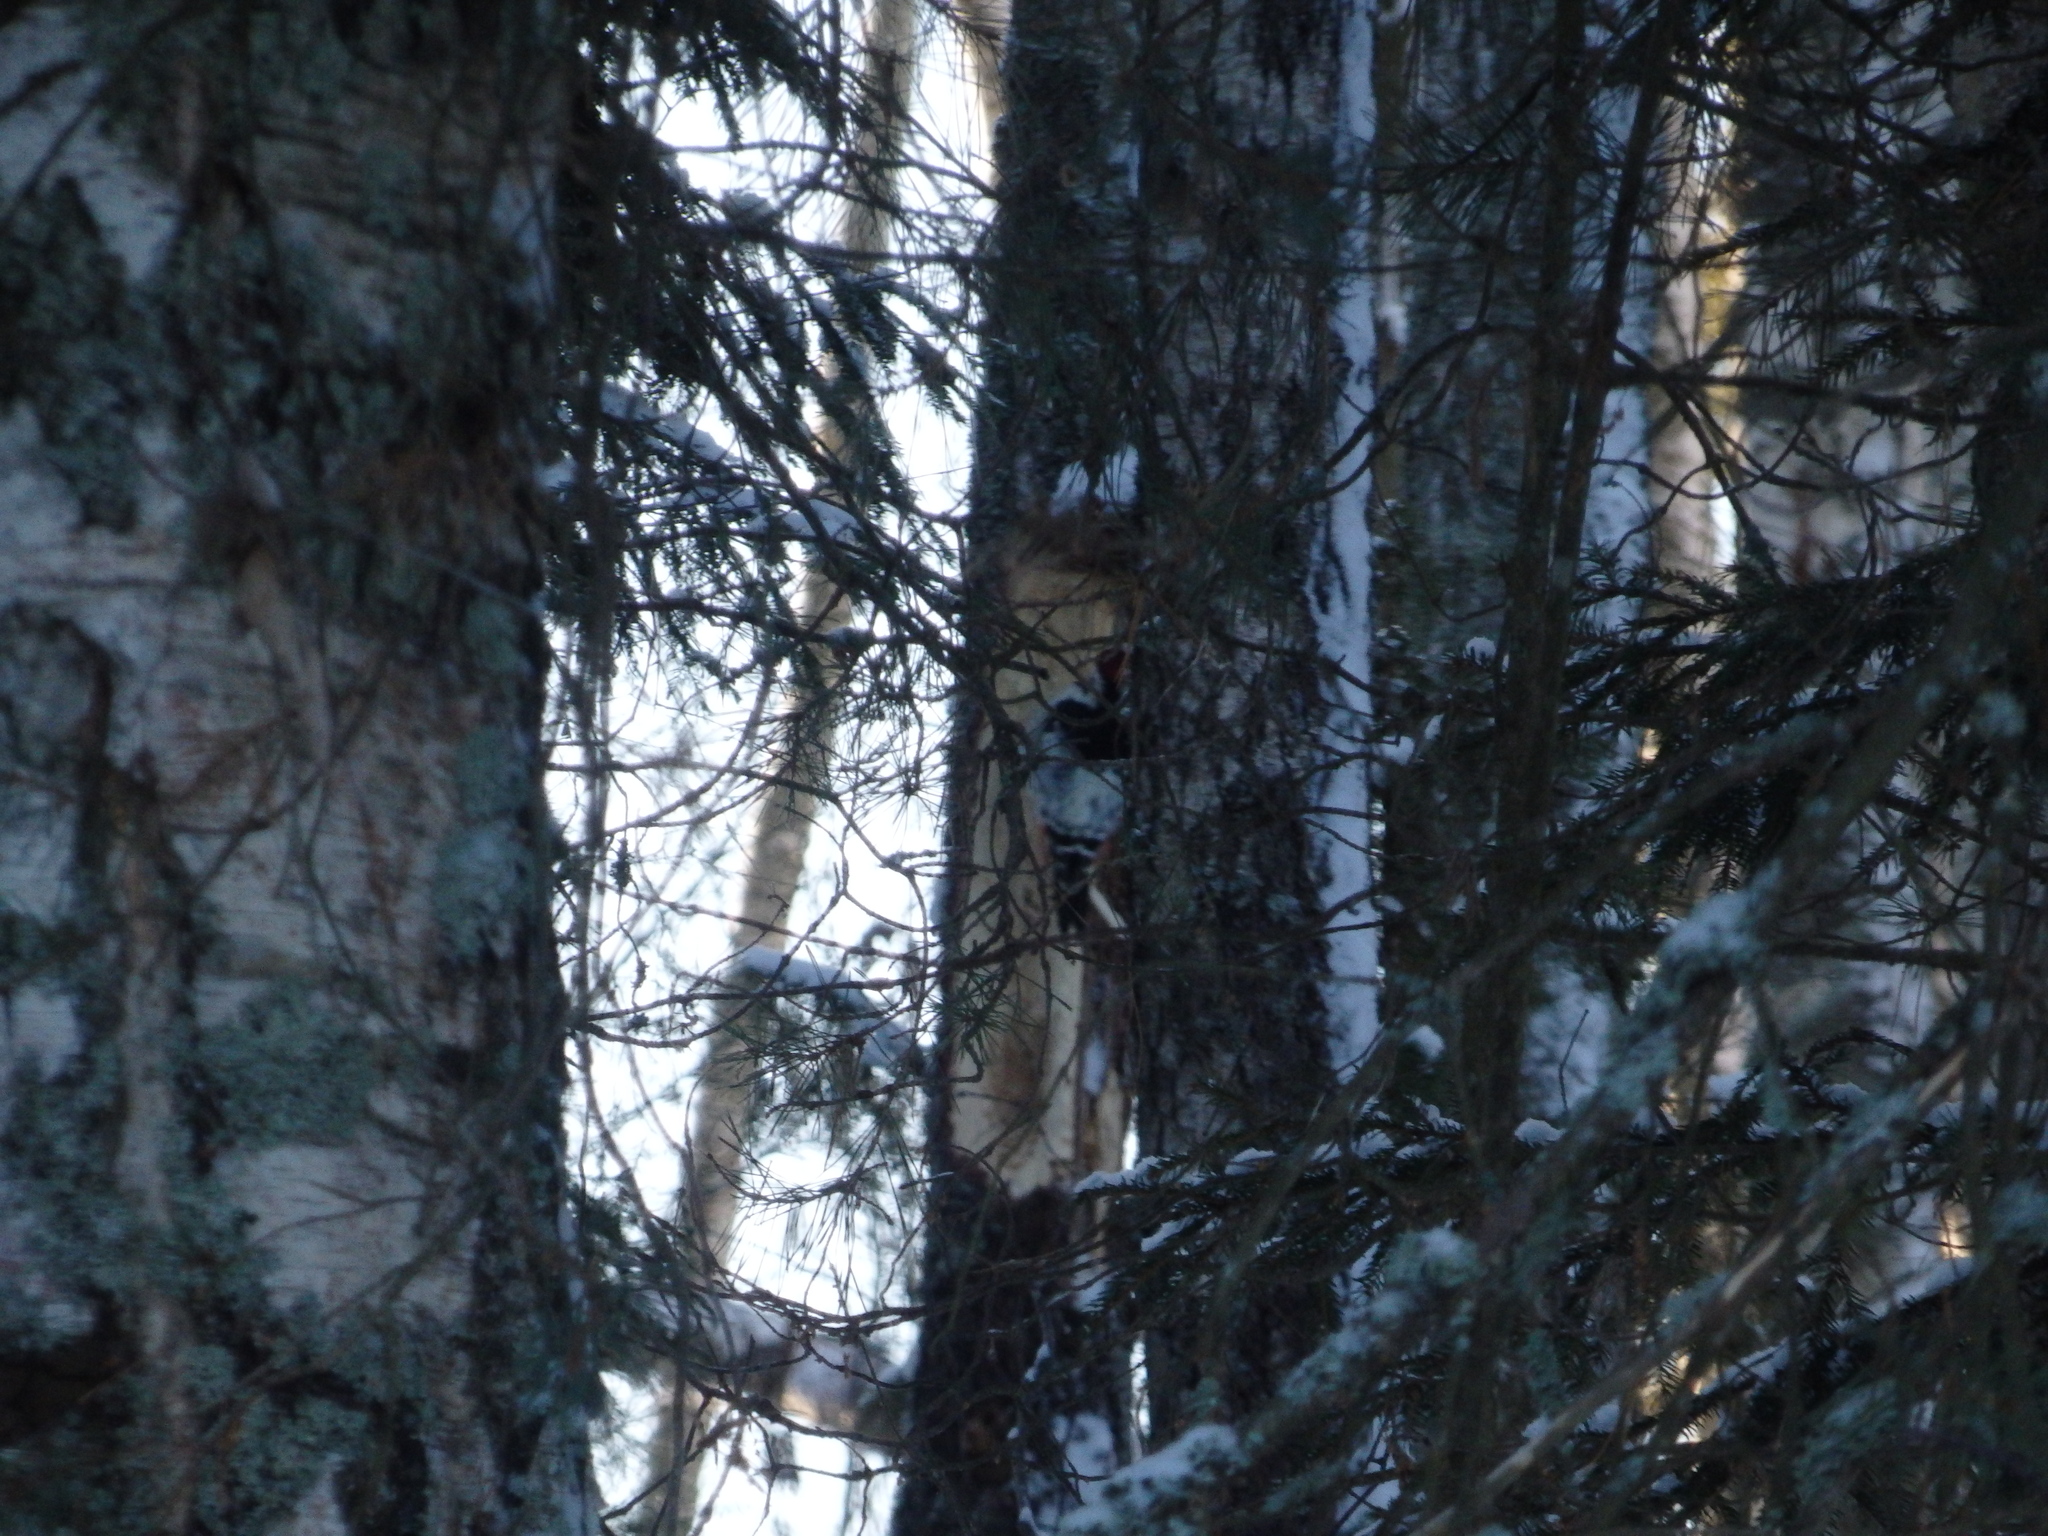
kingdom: Animalia
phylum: Chordata
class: Aves
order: Piciformes
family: Picidae
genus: Dendrocopos
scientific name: Dendrocopos leucotos
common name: White-backed woodpecker
